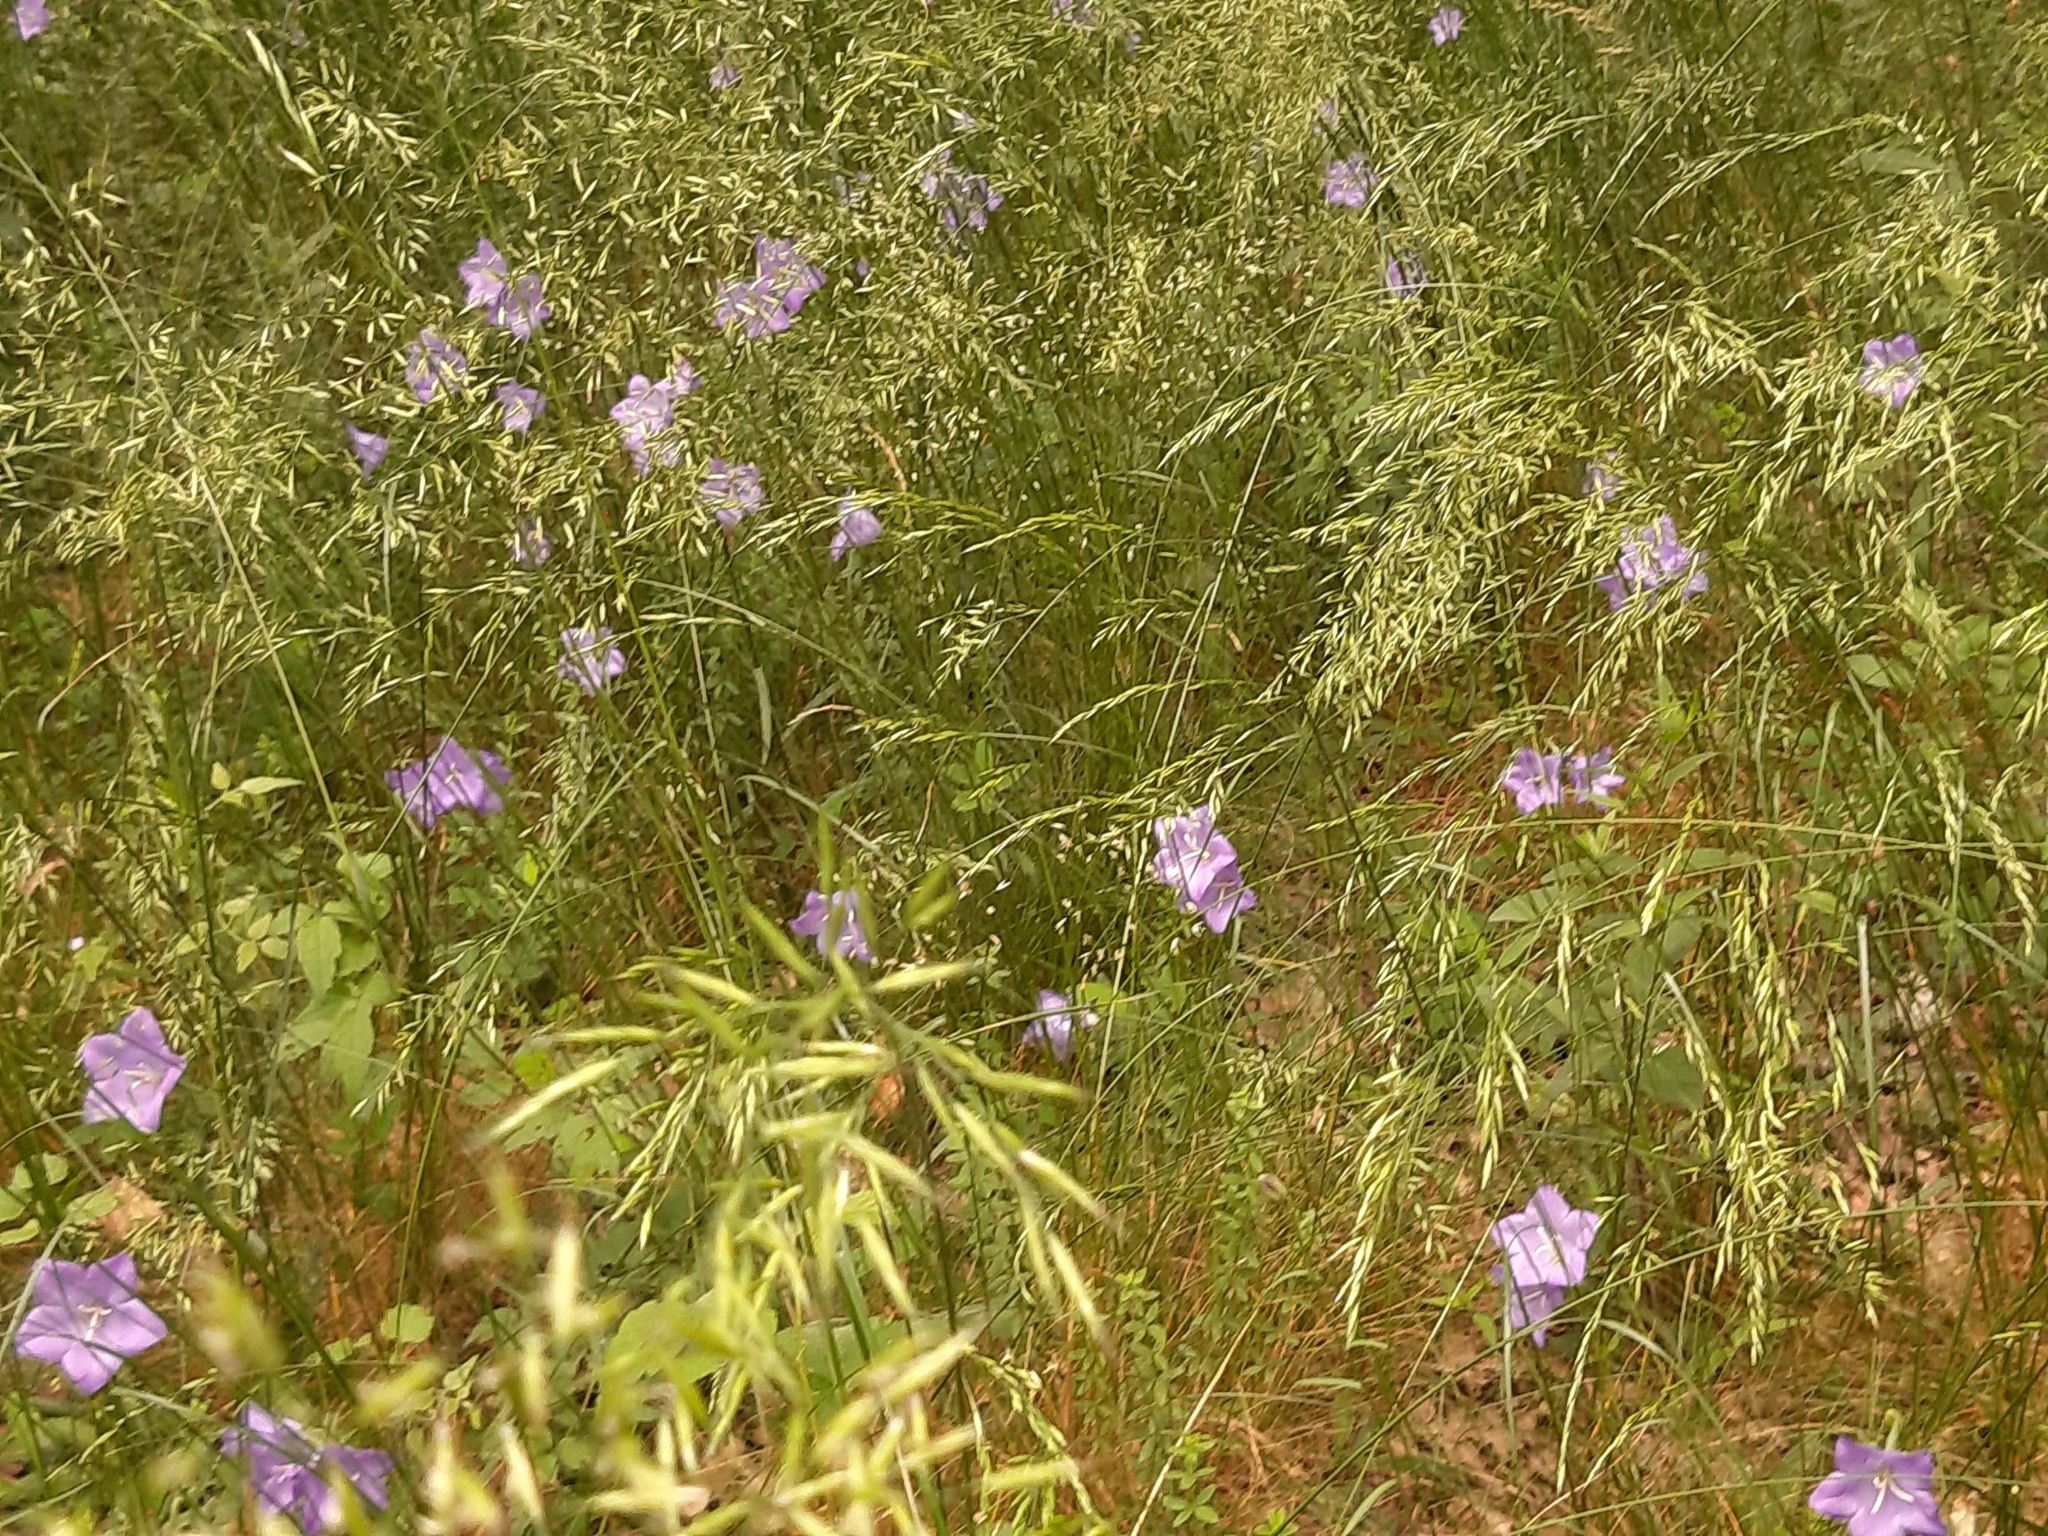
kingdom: Plantae
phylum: Tracheophyta
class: Magnoliopsida
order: Asterales
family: Campanulaceae
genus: Campanula
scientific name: Campanula persicifolia
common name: Peach-leaved bellflower
